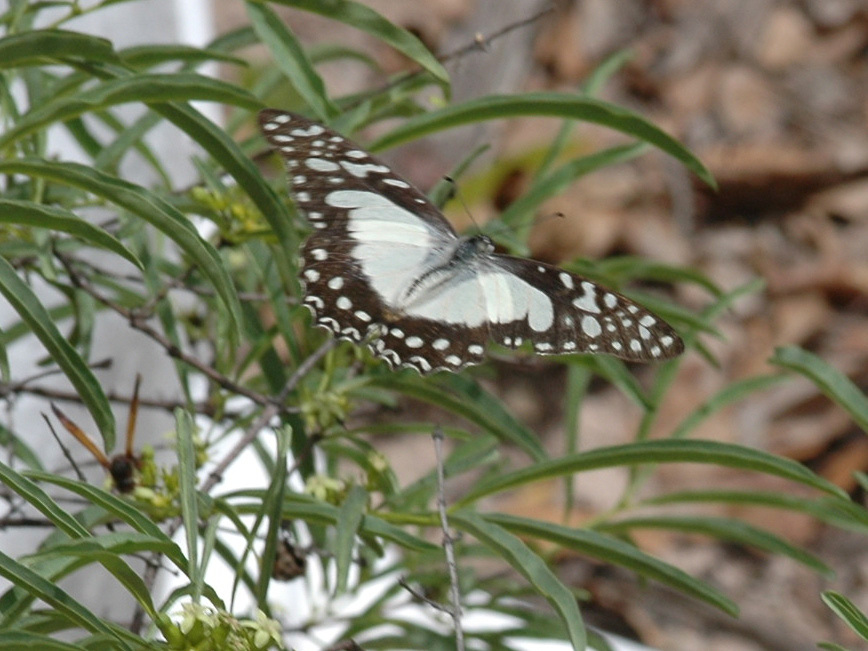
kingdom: Animalia
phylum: Arthropoda
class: Insecta
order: Lepidoptera
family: Papilionidae
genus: Graphium
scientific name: Graphium angolanus
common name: Angola white-lady swordtail
